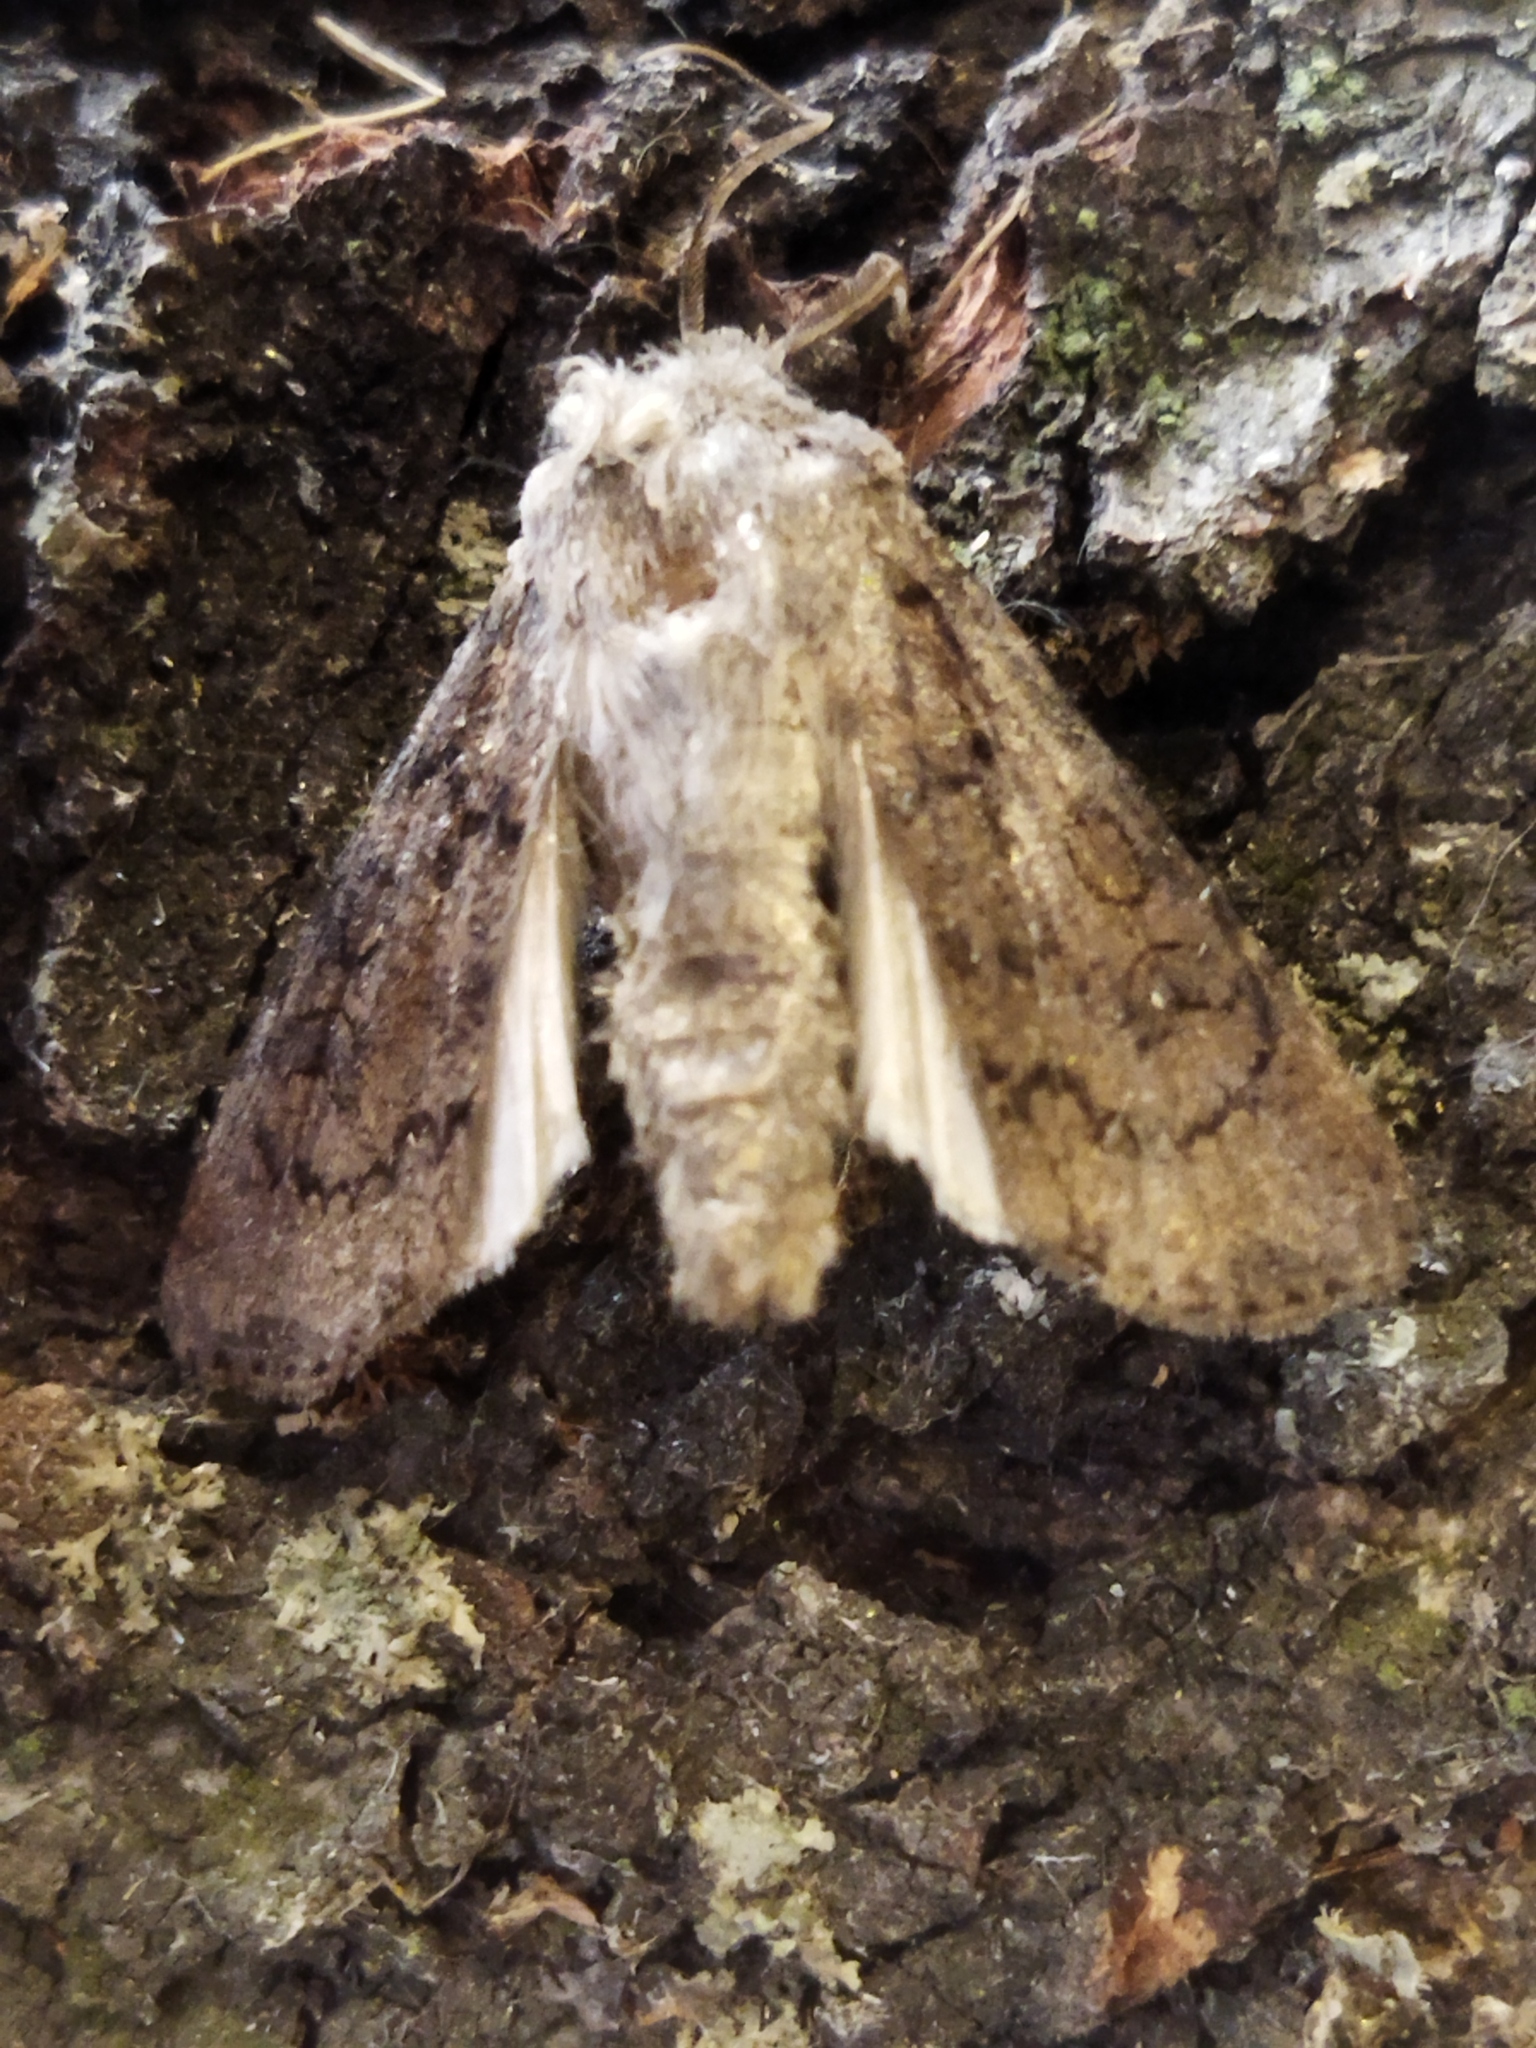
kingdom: Animalia
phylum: Arthropoda
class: Insecta
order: Lepidoptera
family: Noctuidae
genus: Agrotis
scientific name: Agrotis segetum
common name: Turnip moth
